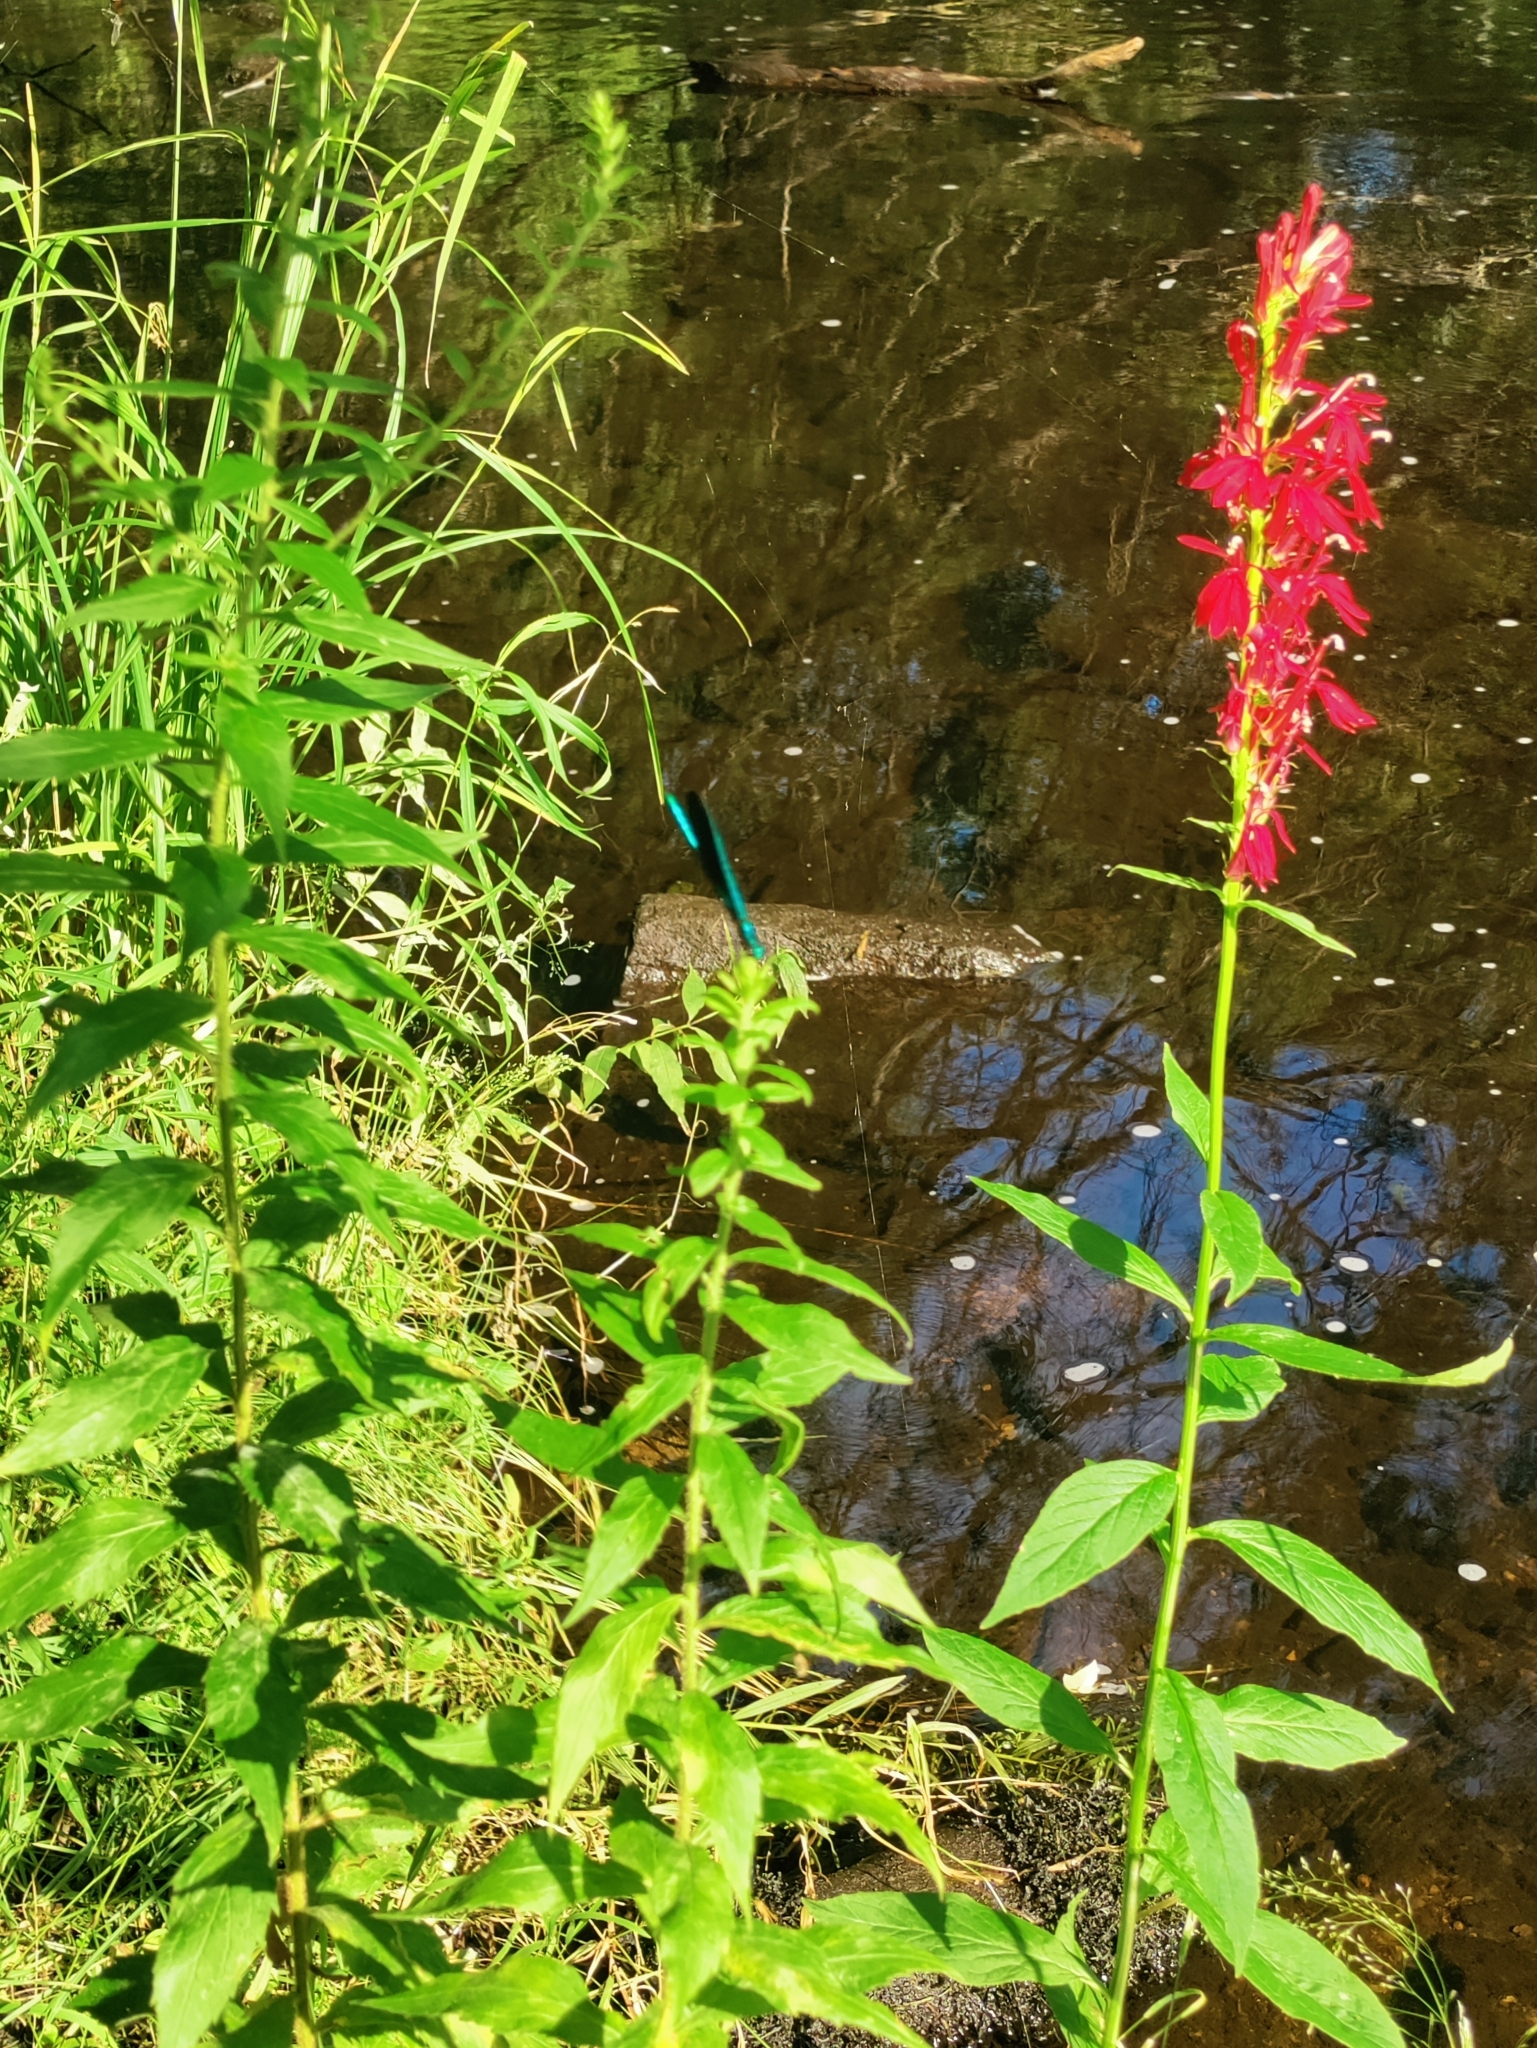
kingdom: Plantae
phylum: Tracheophyta
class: Magnoliopsida
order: Asterales
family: Campanulaceae
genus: Lobelia
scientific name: Lobelia cardinalis
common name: Cardinal flower
